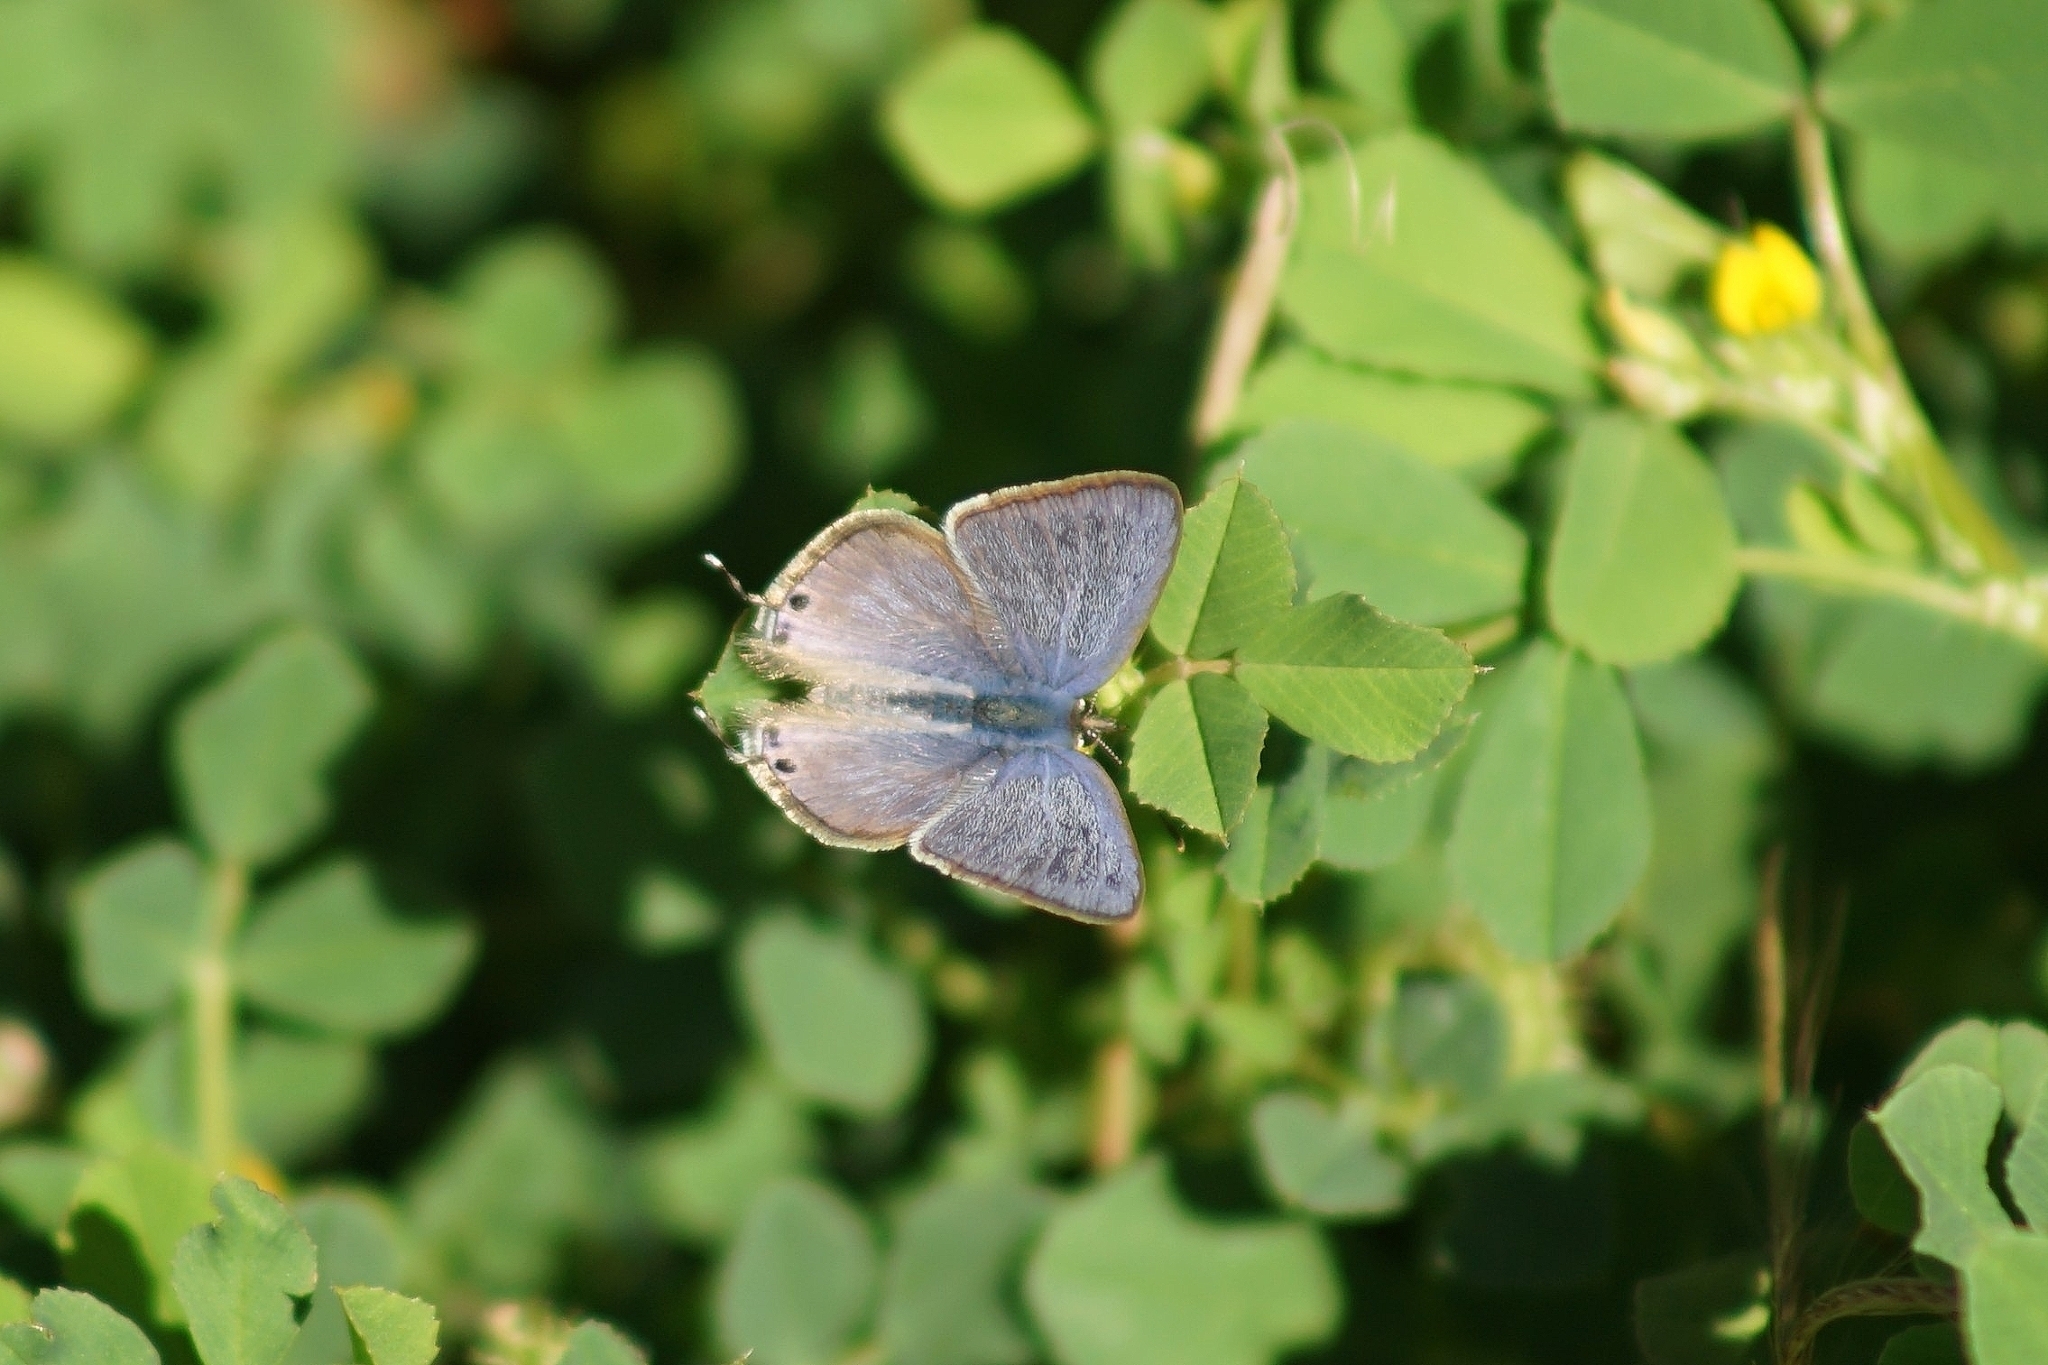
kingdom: Animalia
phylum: Arthropoda
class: Insecta
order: Lepidoptera
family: Lycaenidae
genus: Leptotes
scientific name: Leptotes pirithous
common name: Lang's short-tailed blue
